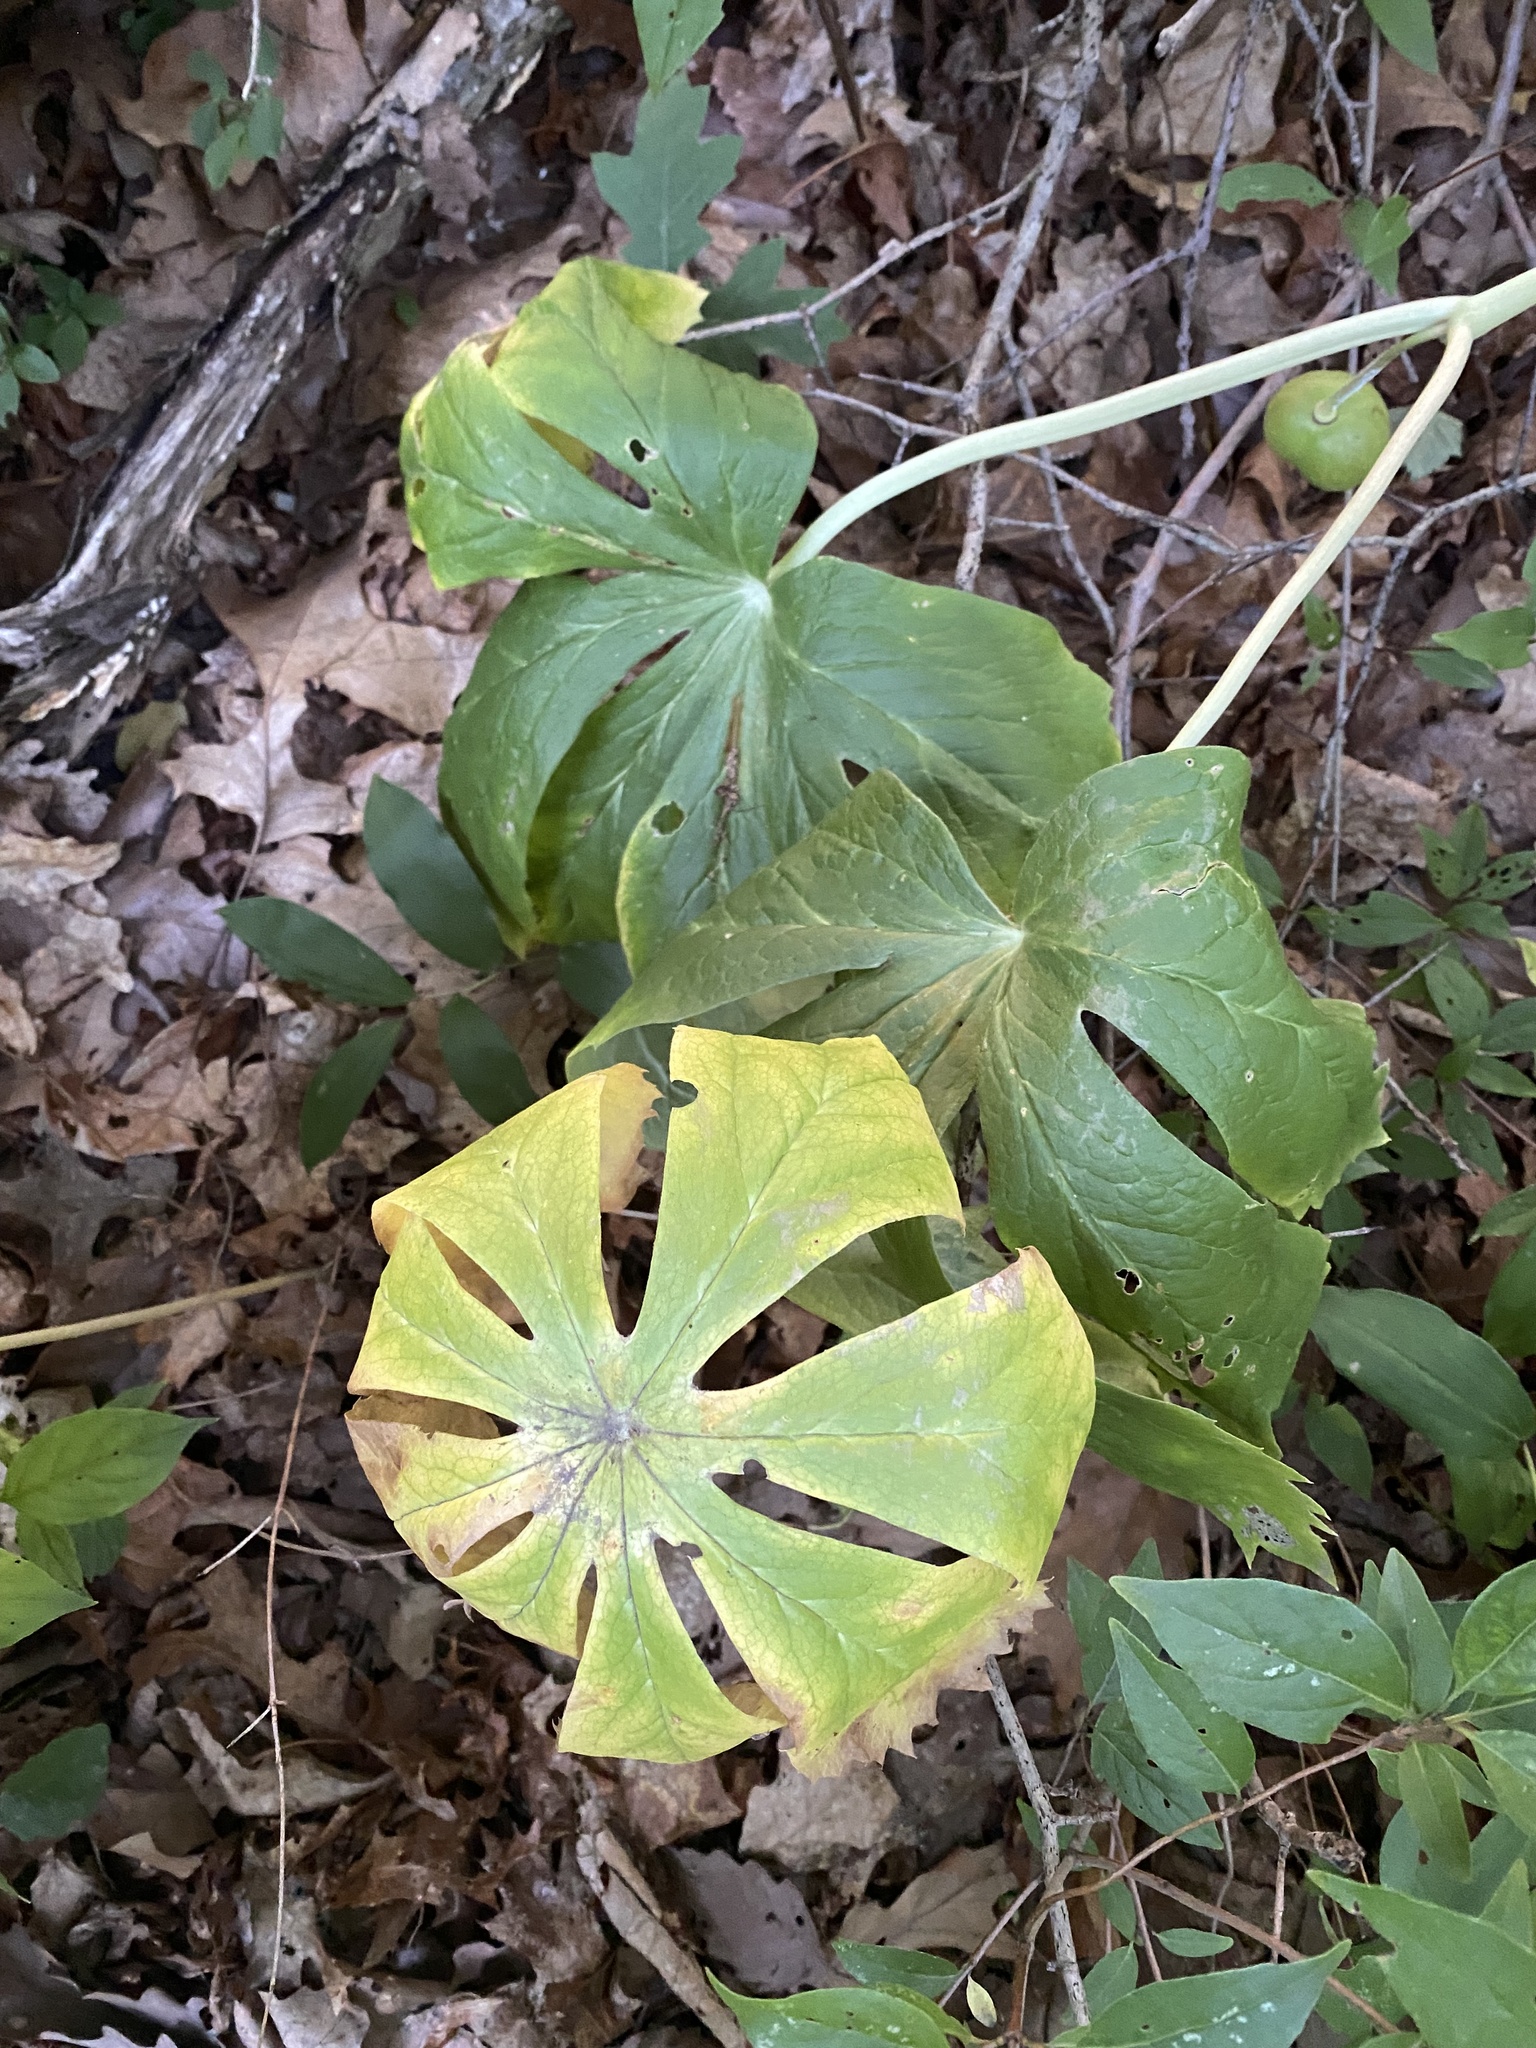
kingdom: Plantae
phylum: Tracheophyta
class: Magnoliopsida
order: Ranunculales
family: Berberidaceae
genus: Podophyllum
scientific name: Podophyllum peltatum
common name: Wild mandrake
